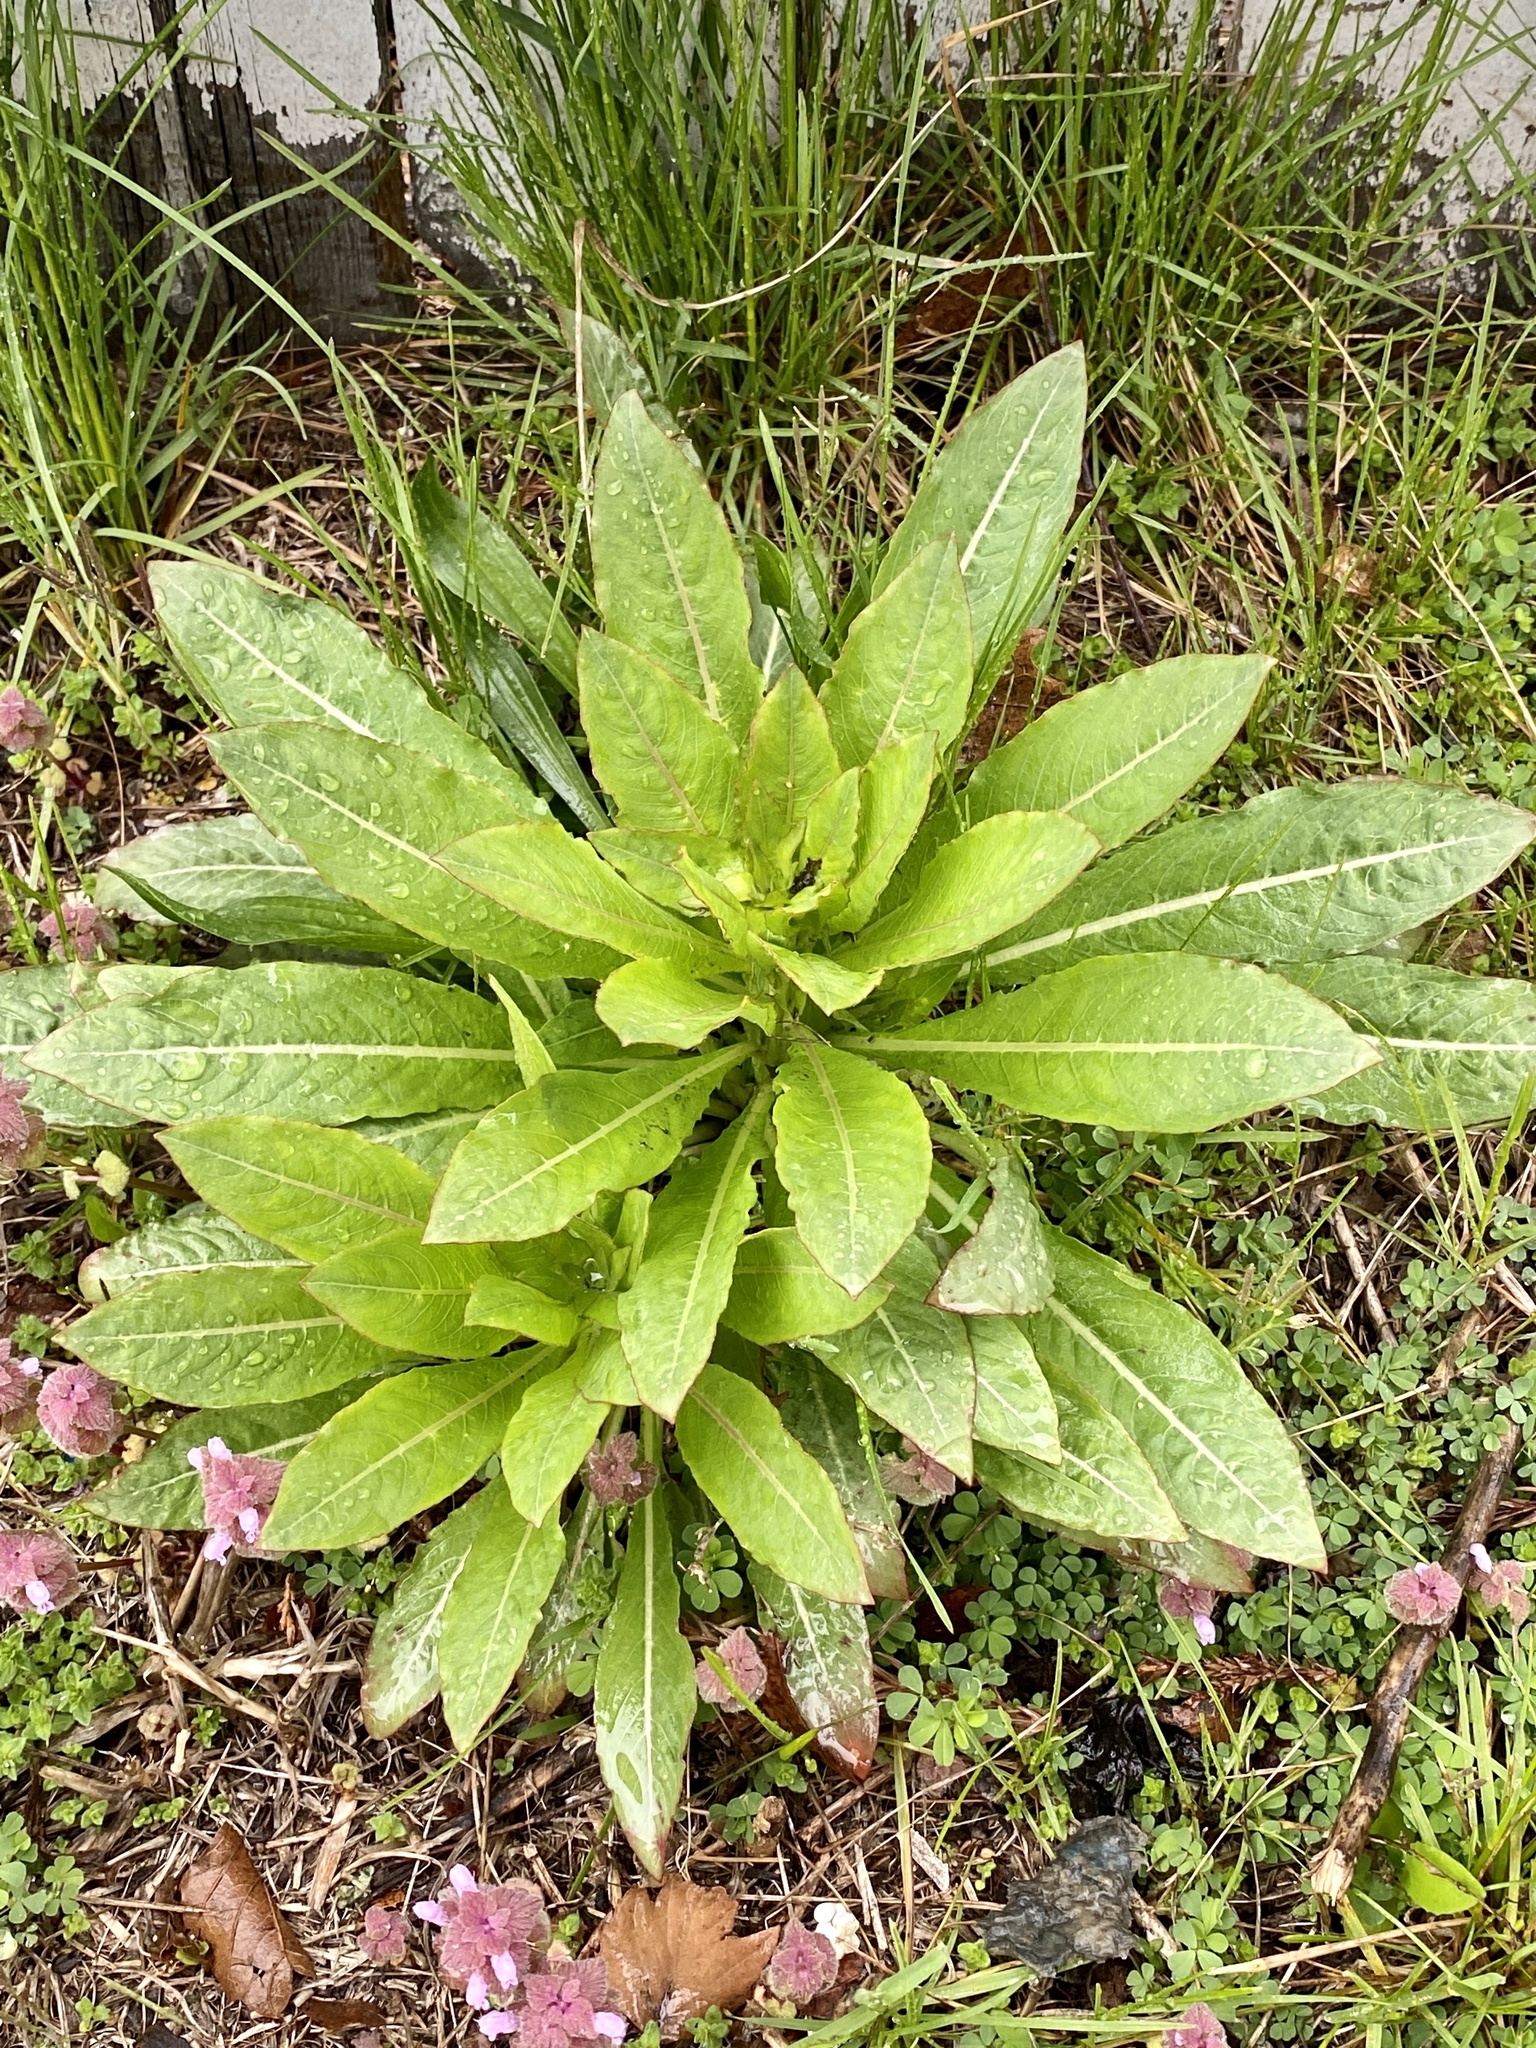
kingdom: Plantae
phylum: Tracheophyta
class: Magnoliopsida
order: Myrtales
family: Onagraceae
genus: Oenothera
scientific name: Oenothera biennis
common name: Common evening-primrose
